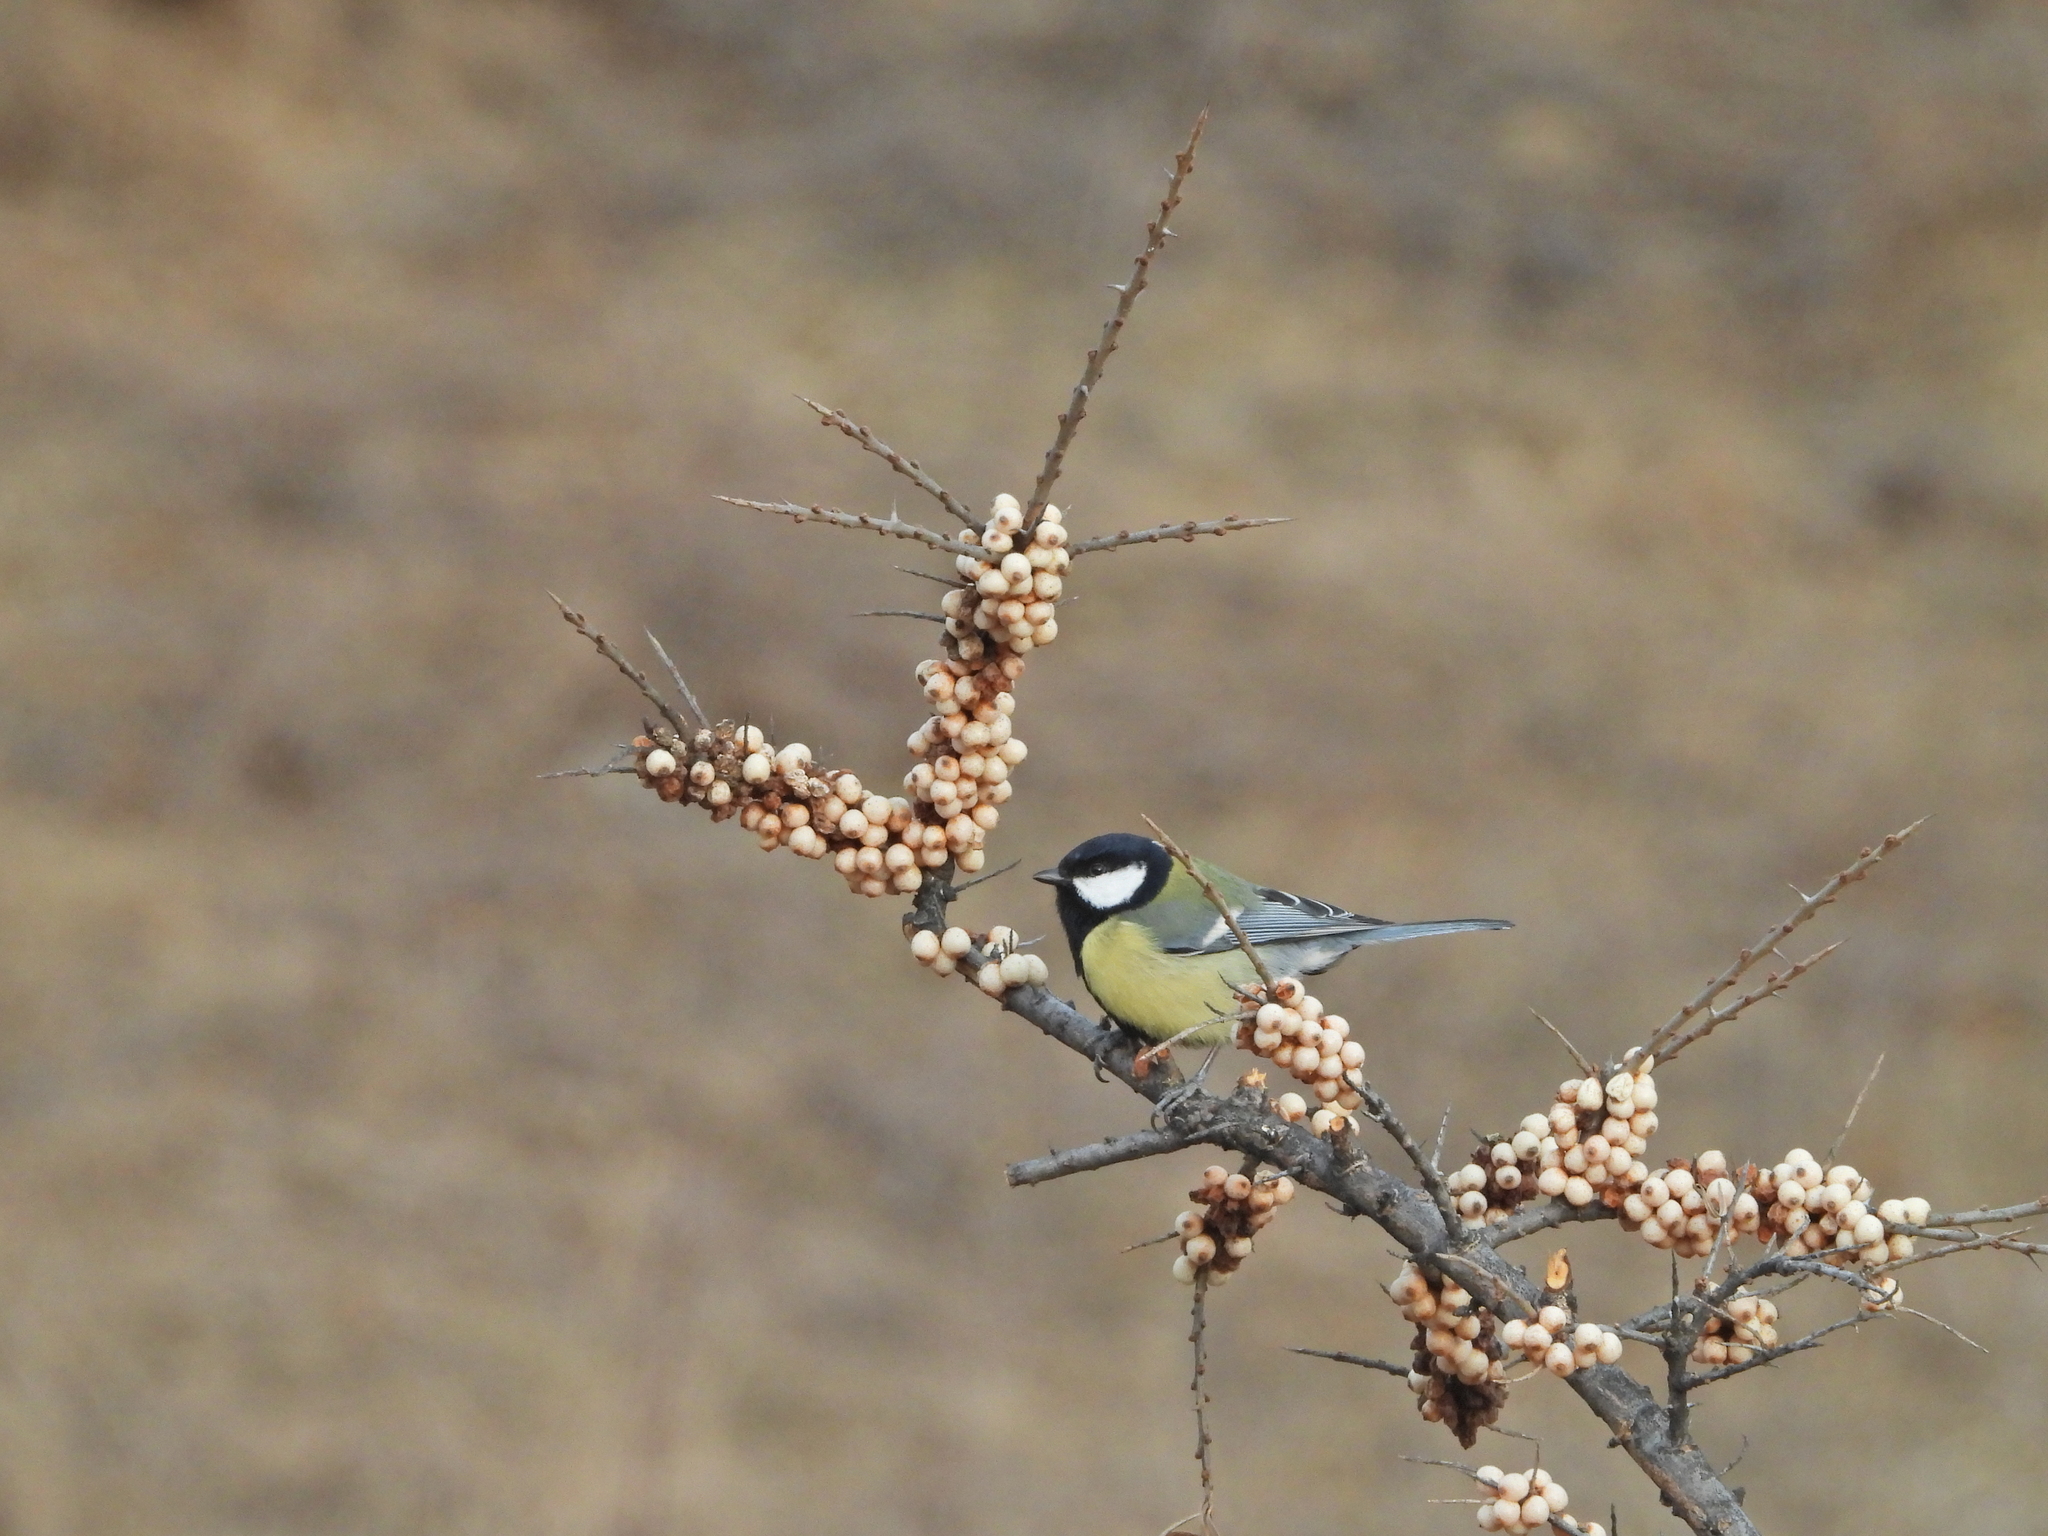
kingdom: Animalia
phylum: Chordata
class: Aves
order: Passeriformes
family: Paridae
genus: Parus
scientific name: Parus major
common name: Great tit
